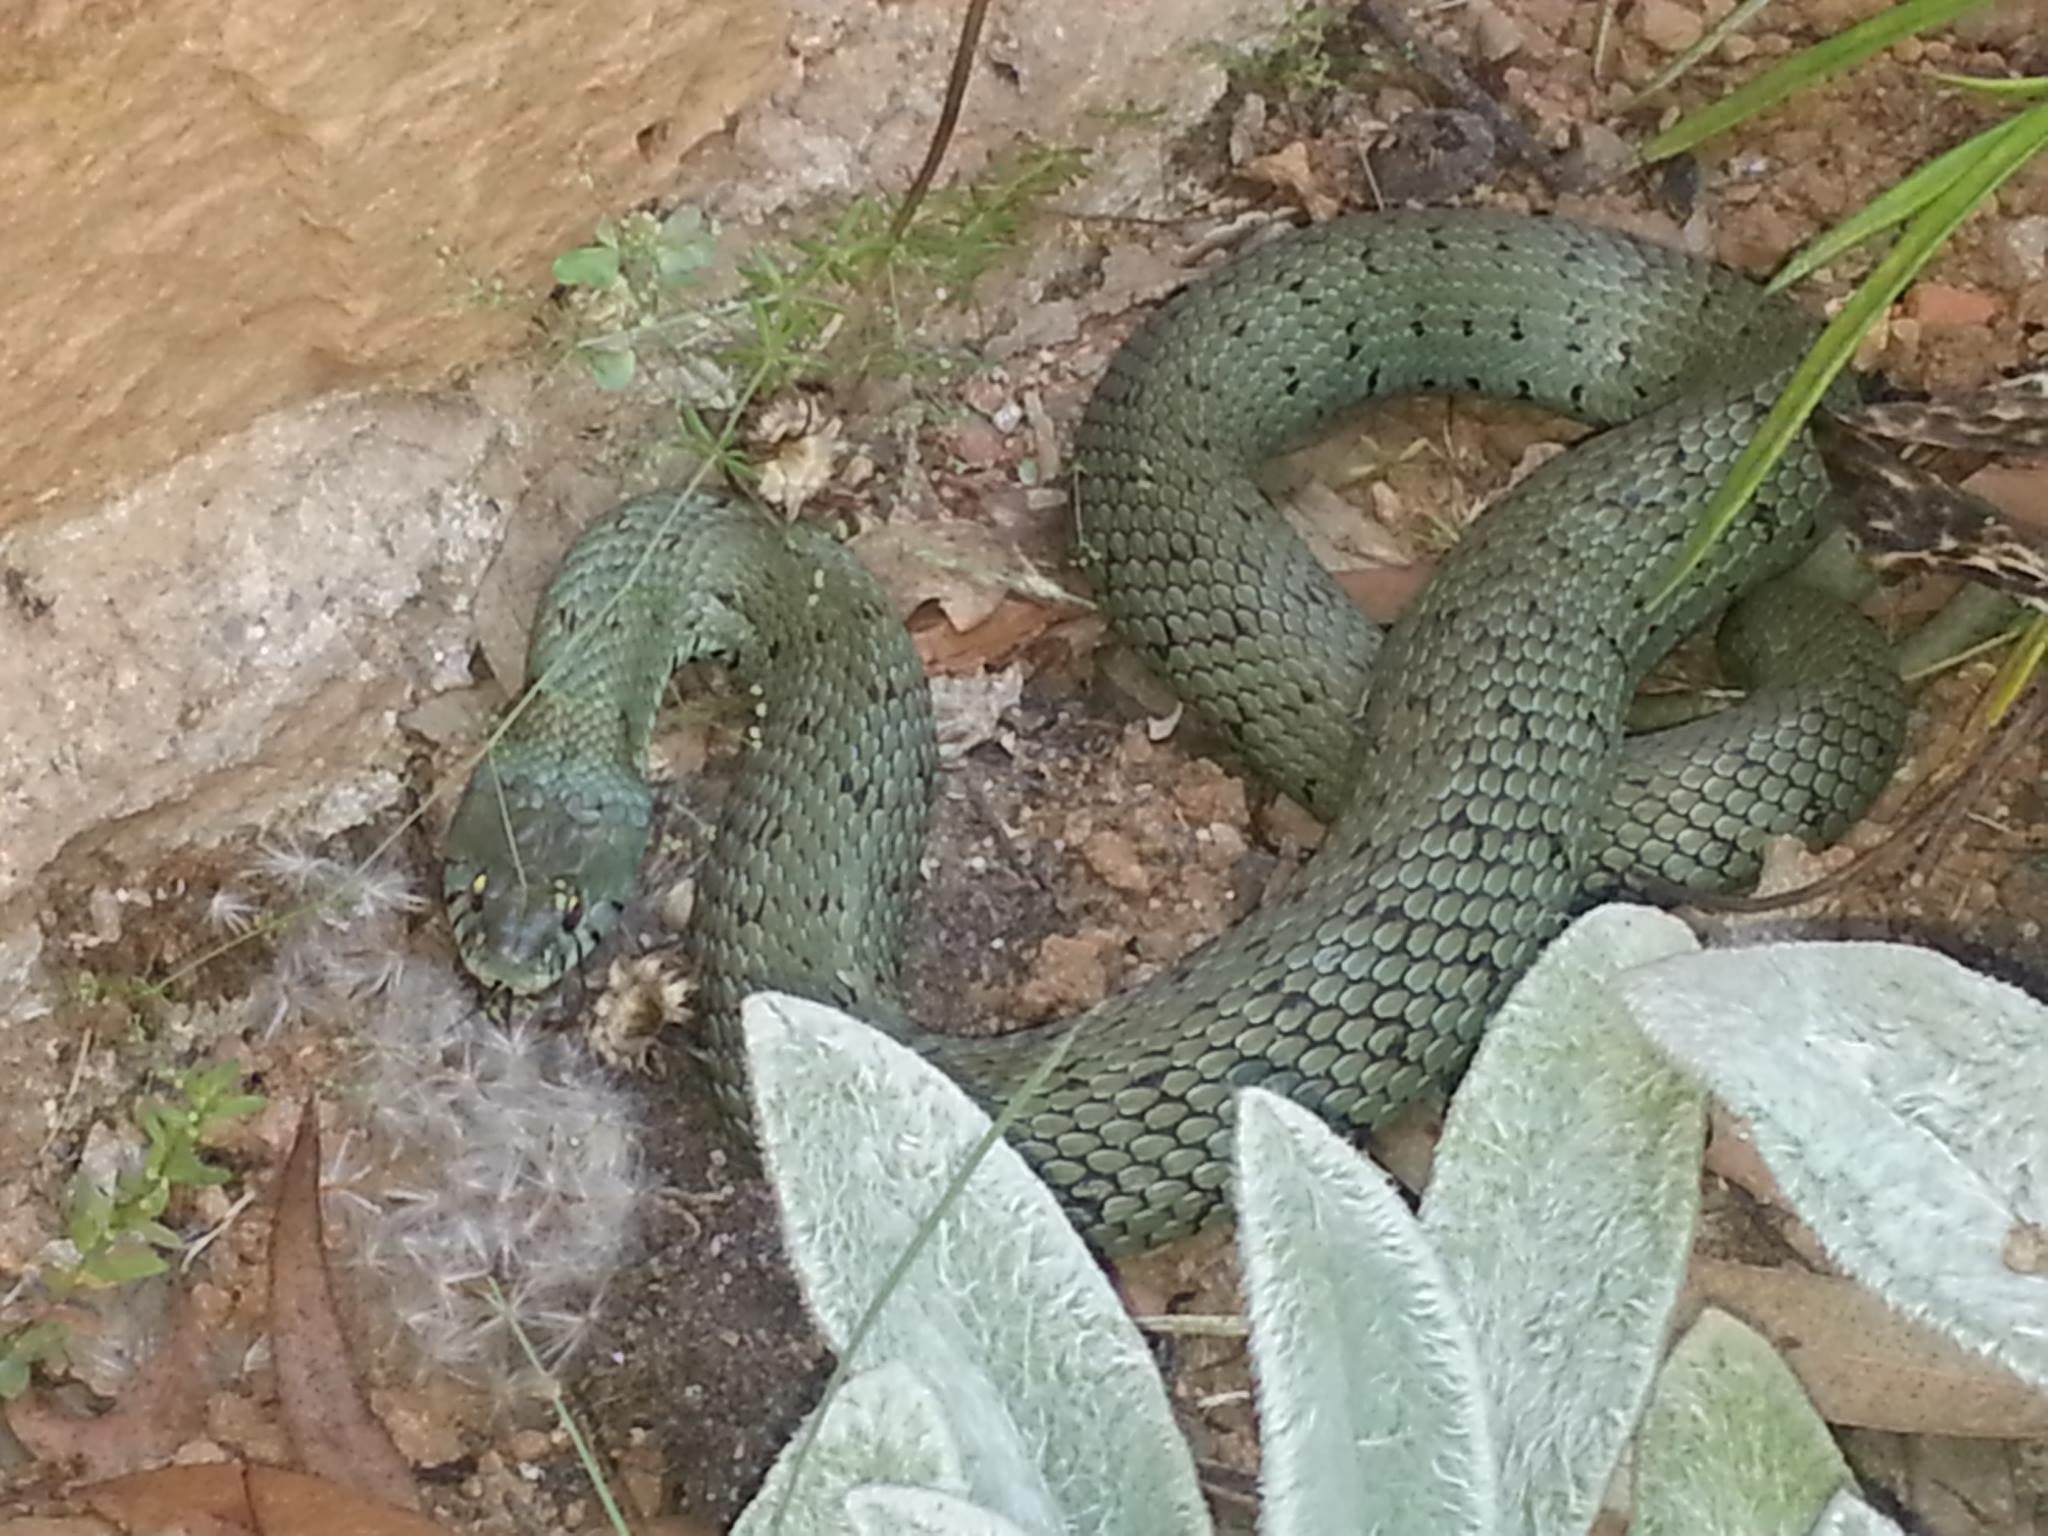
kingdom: Animalia
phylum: Chordata
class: Squamata
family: Colubridae
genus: Natrix
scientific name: Natrix astreptophora
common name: Red-eyed grass snake
